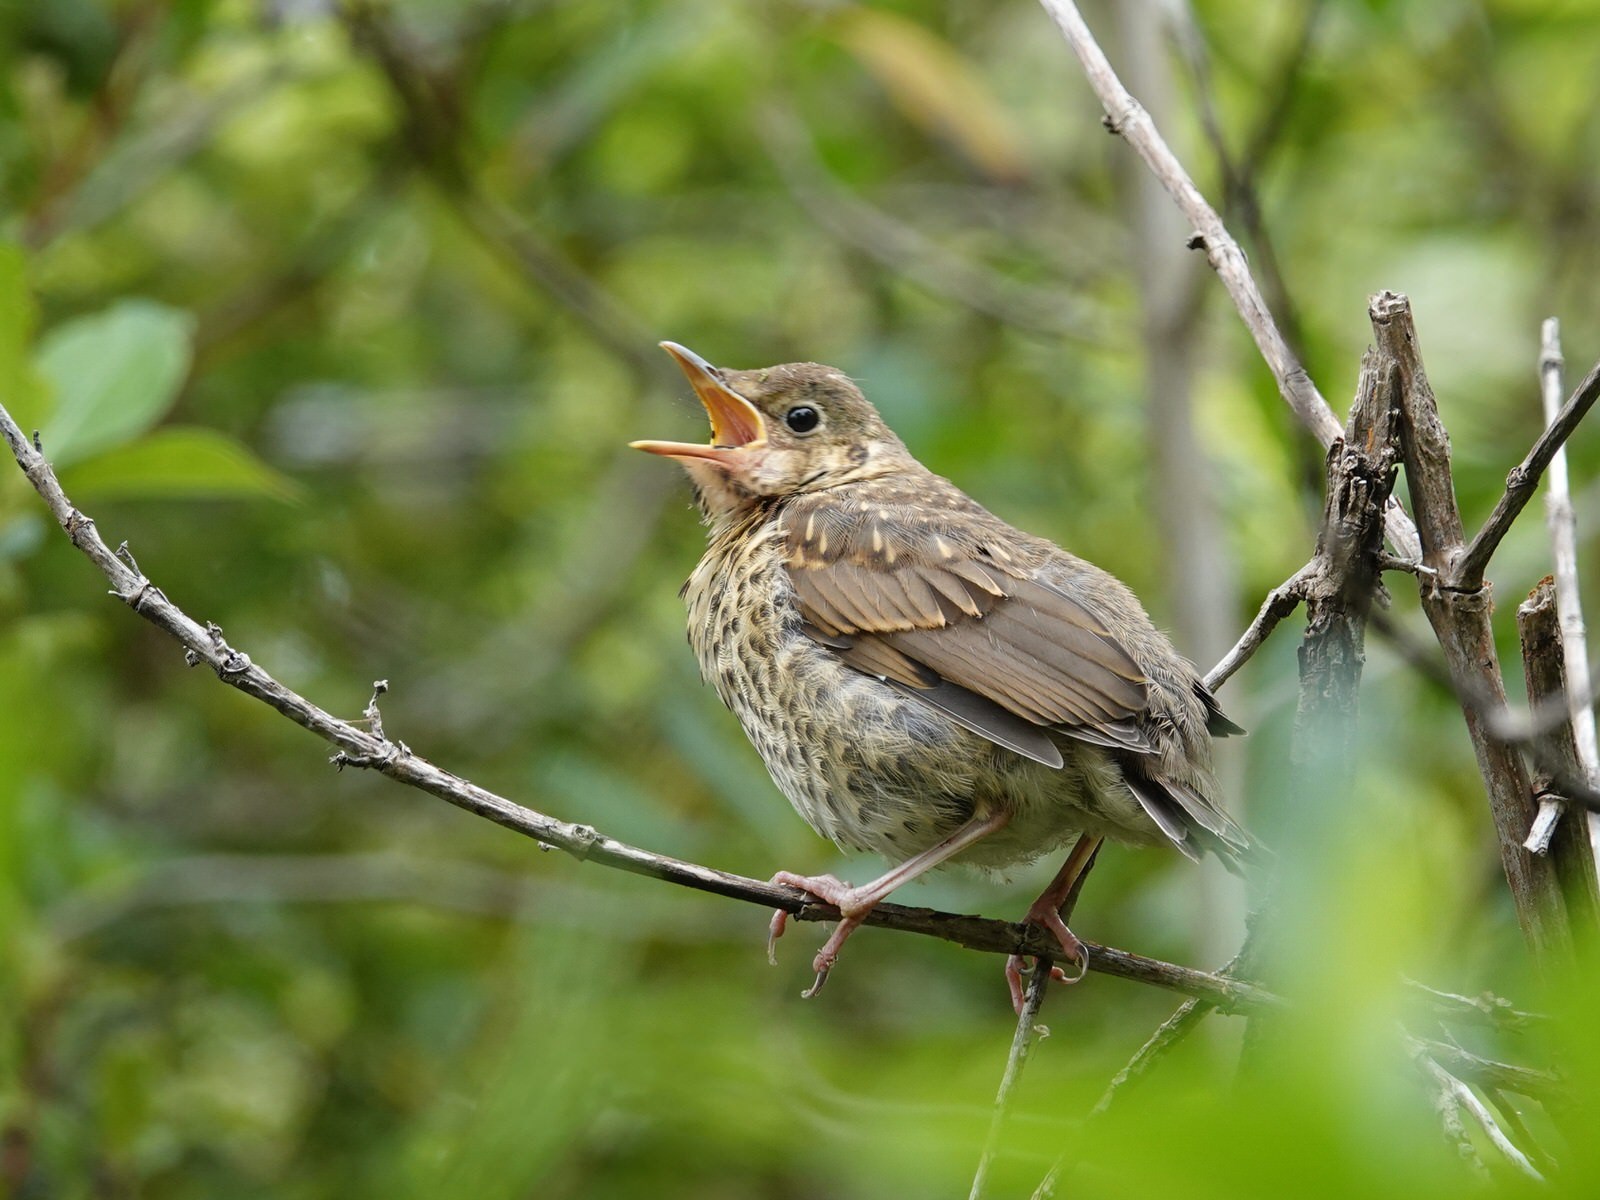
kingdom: Animalia
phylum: Chordata
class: Aves
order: Passeriformes
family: Turdidae
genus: Turdus
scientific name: Turdus philomelos
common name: Song thrush
